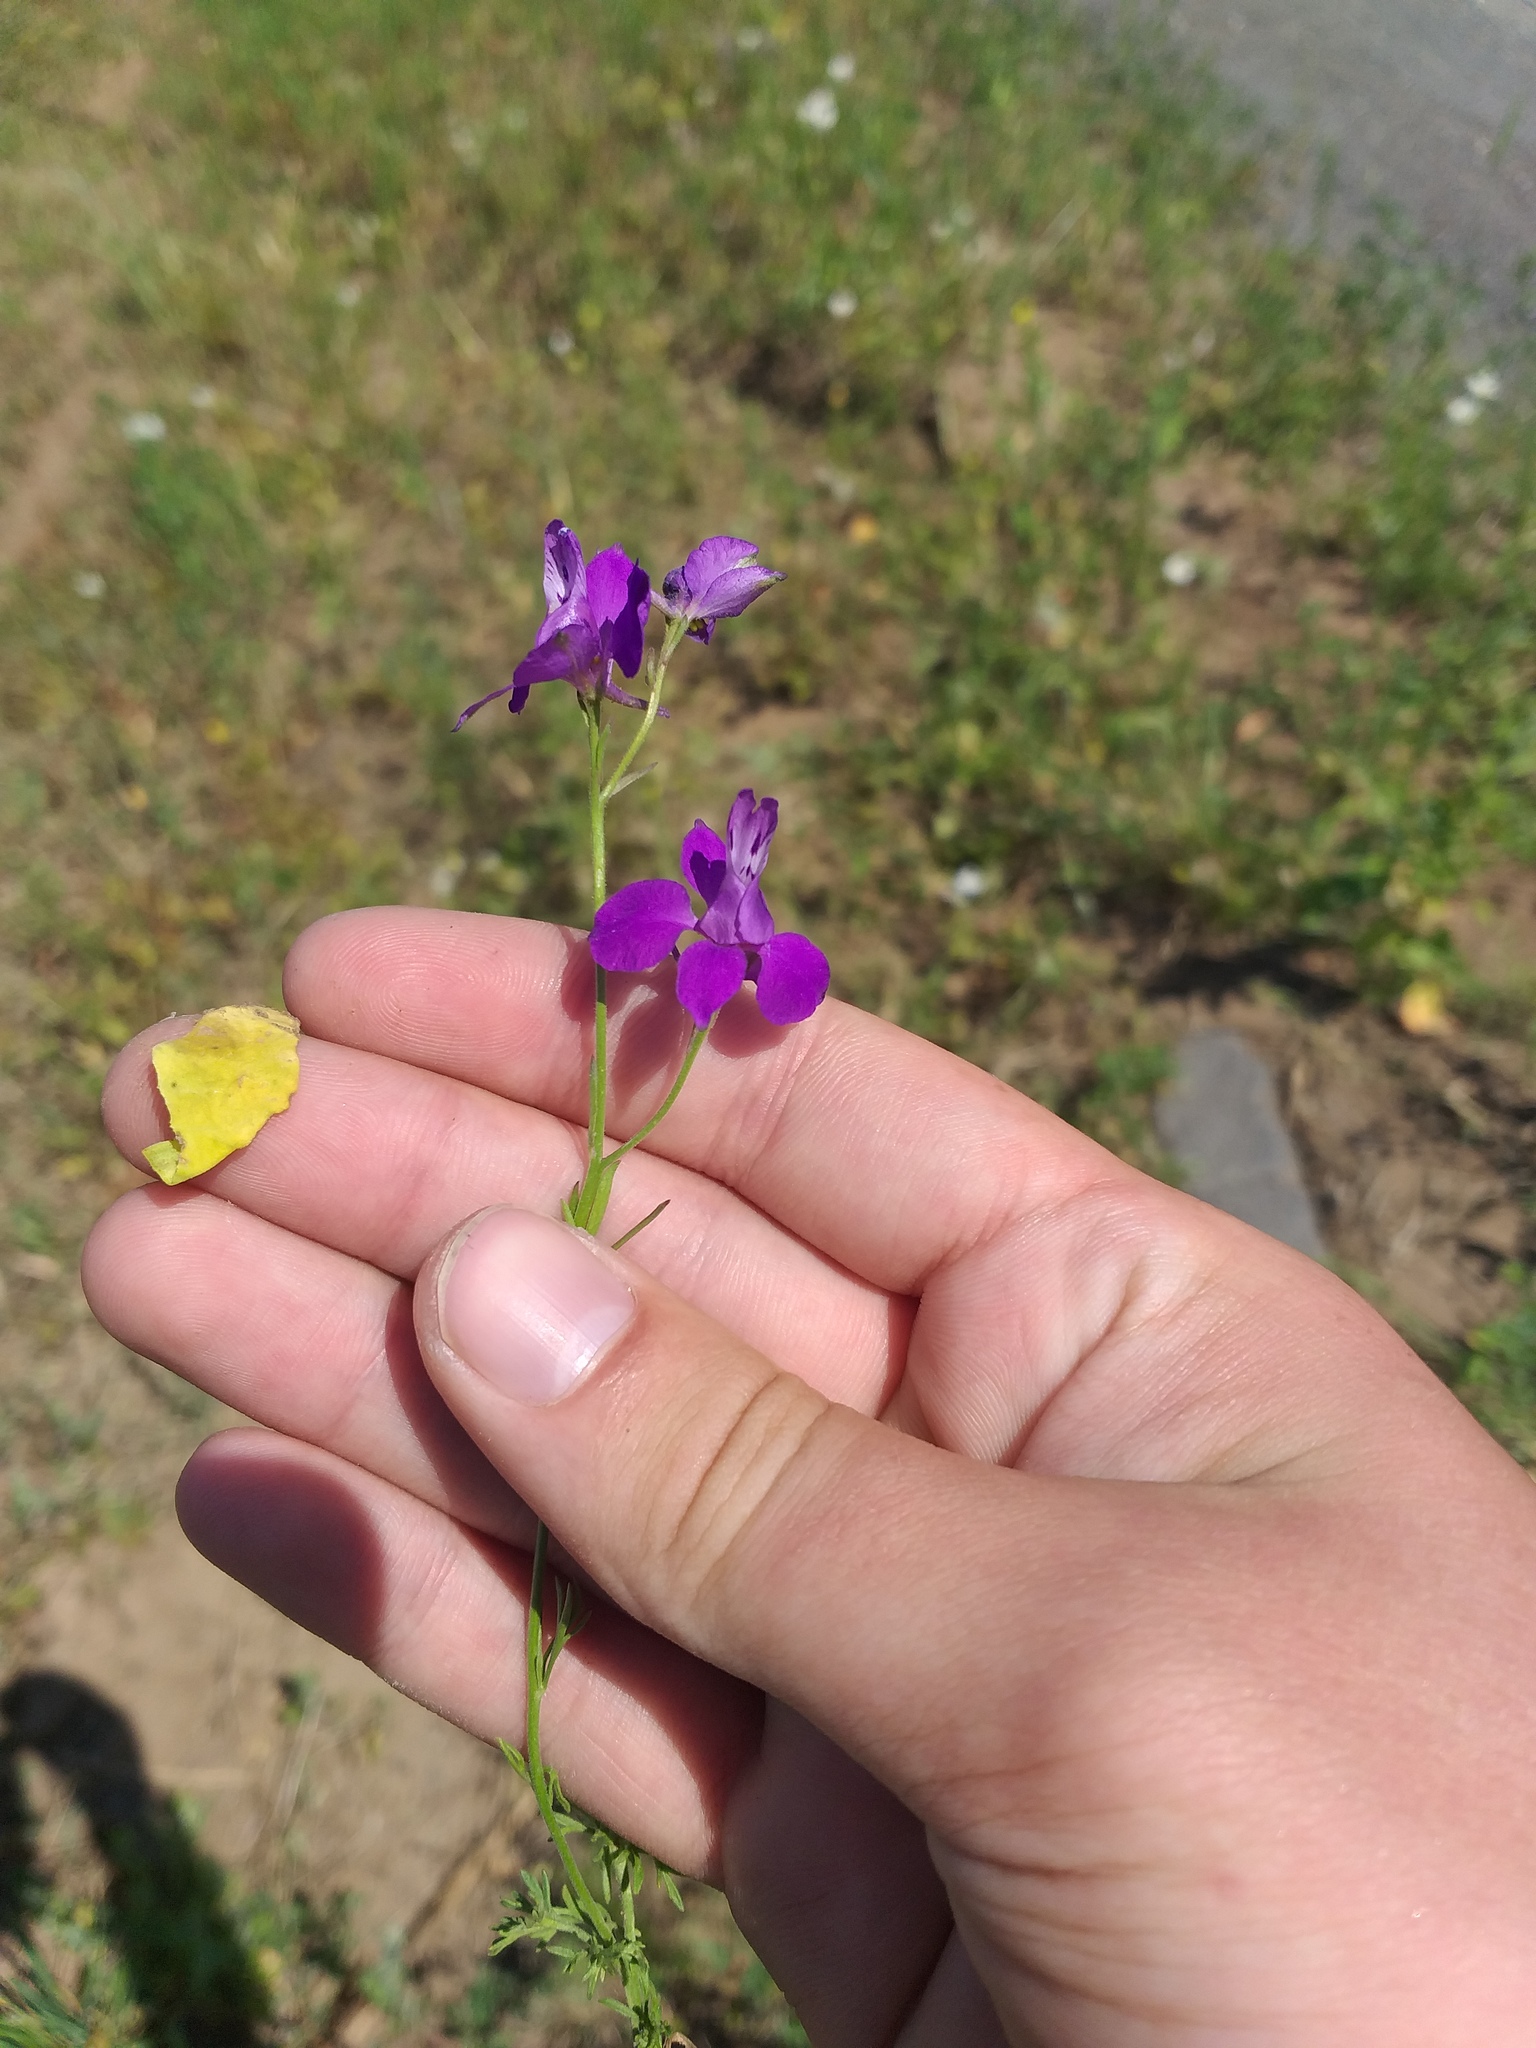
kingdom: Plantae
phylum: Tracheophyta
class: Magnoliopsida
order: Ranunculales
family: Ranunculaceae
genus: Delphinium
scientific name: Delphinium ajacis
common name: Doubtful knight's-spur
